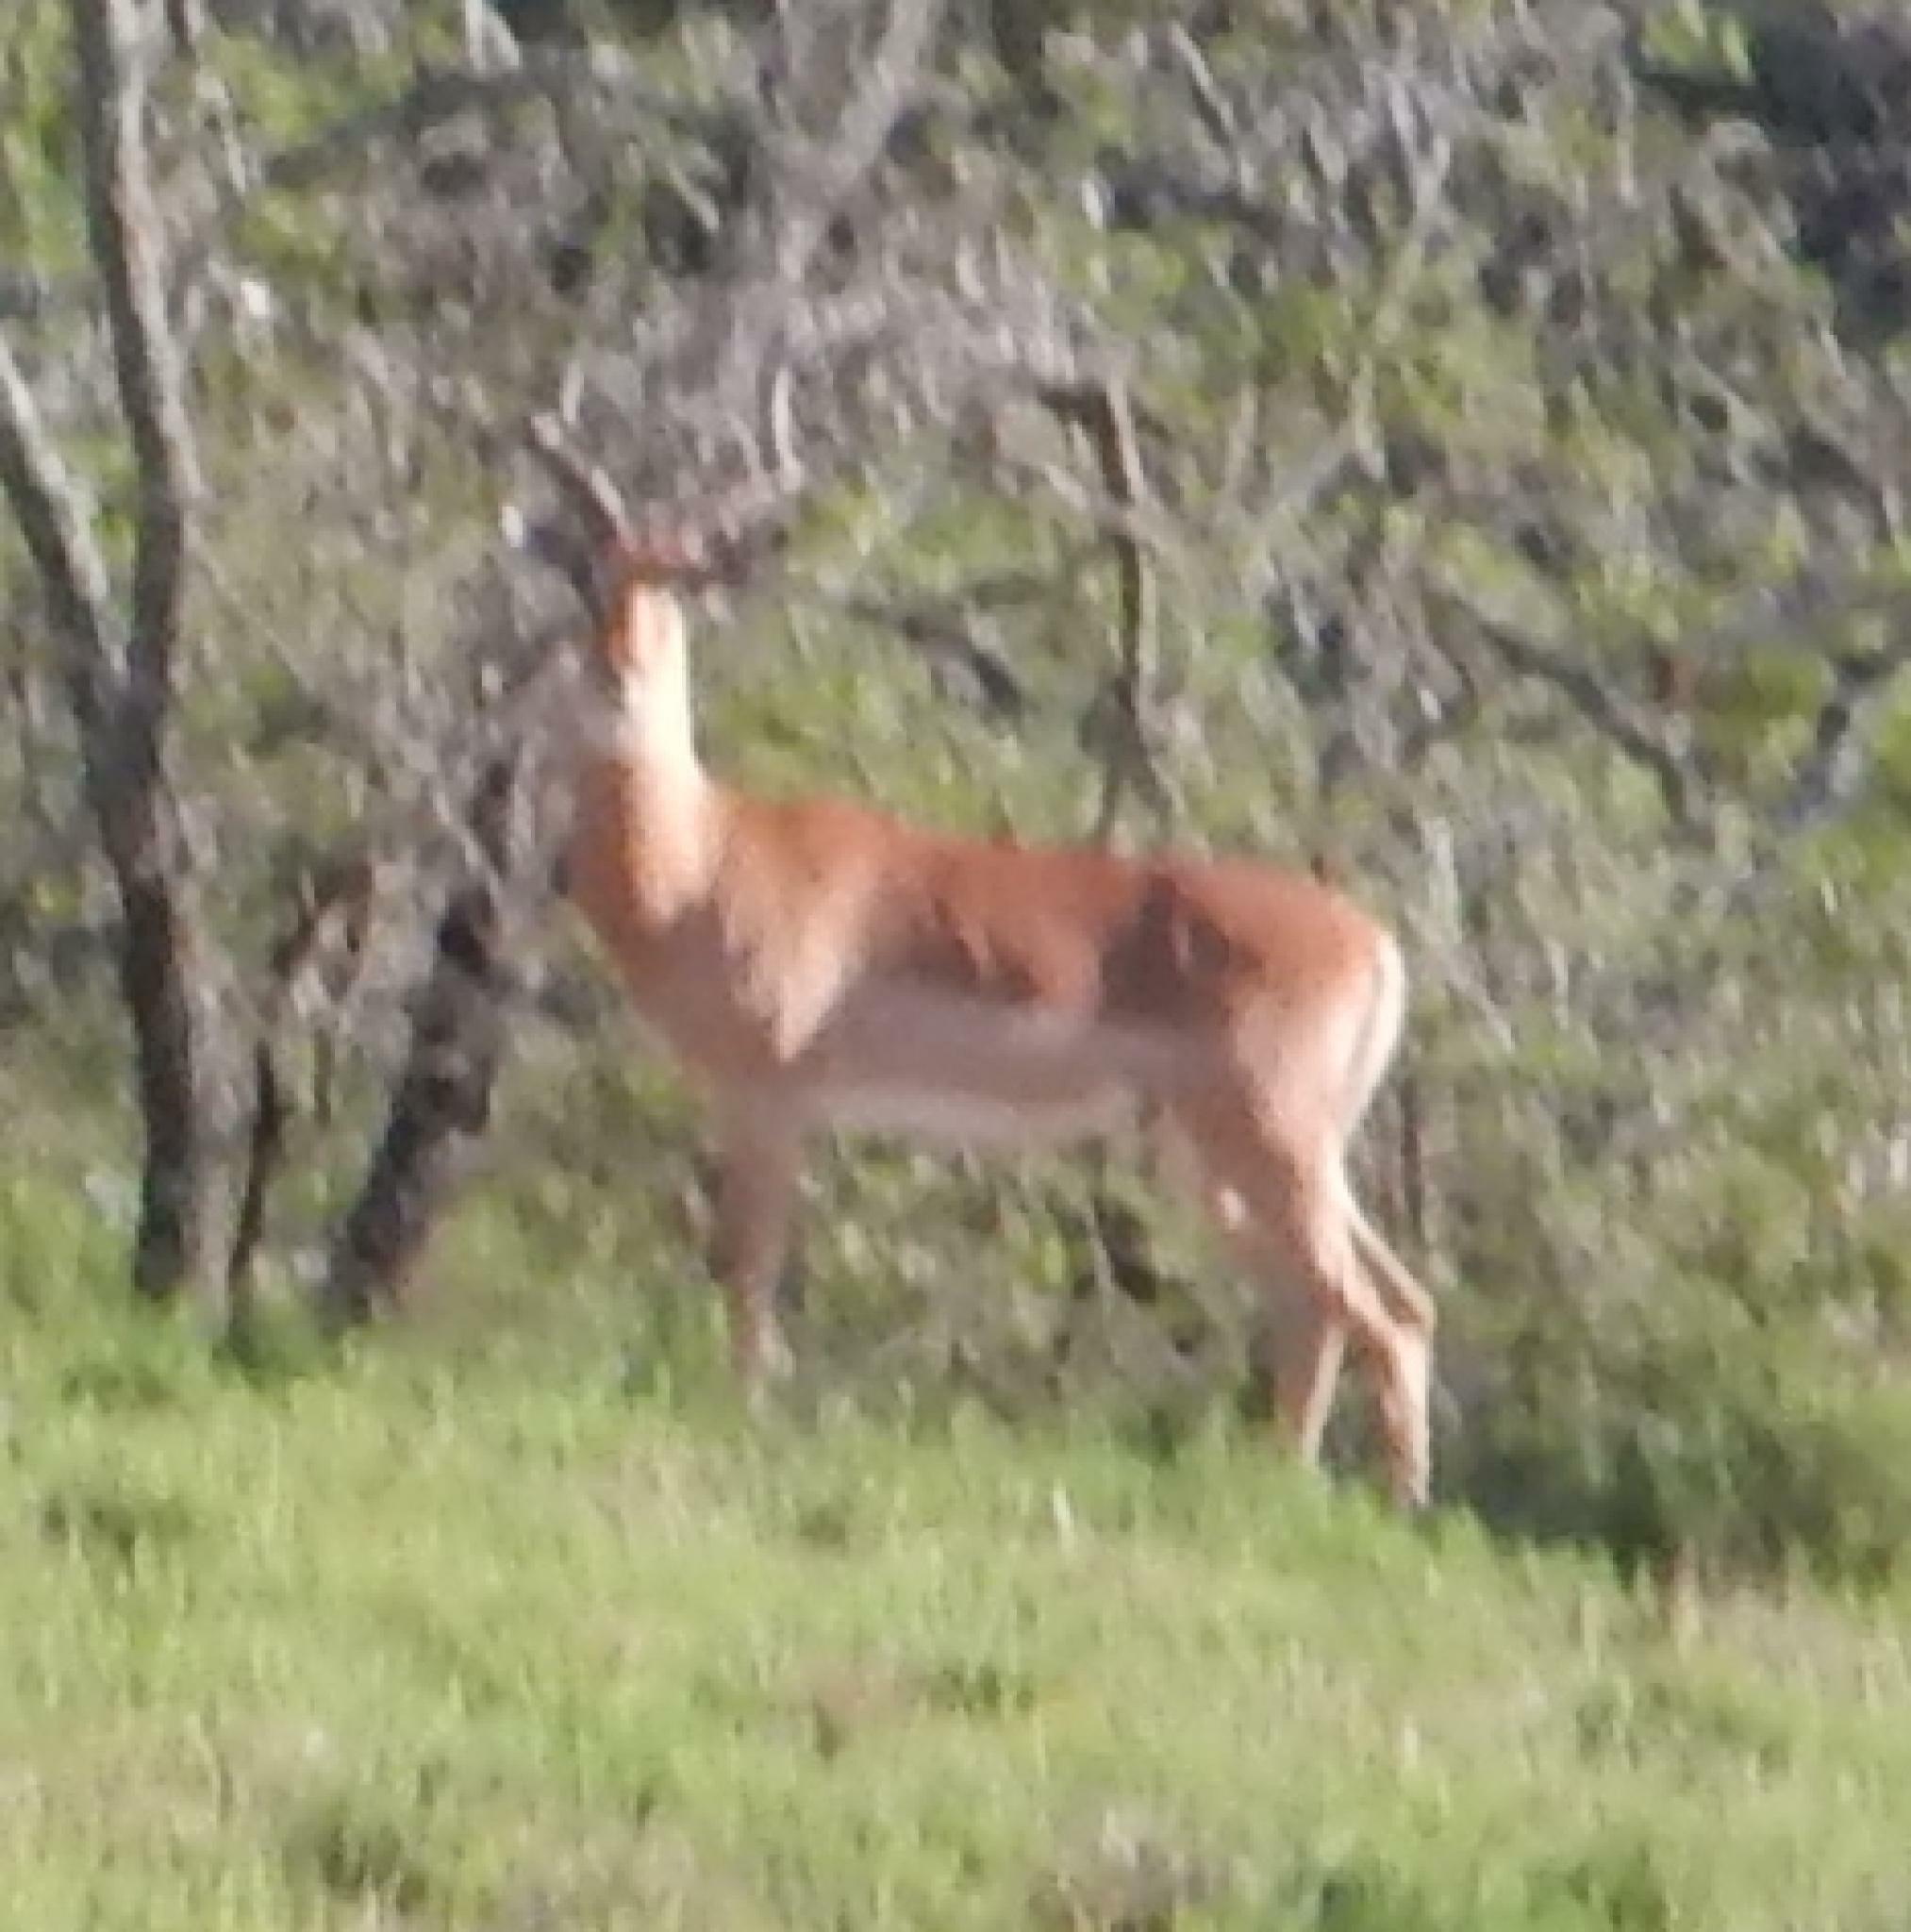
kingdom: Animalia
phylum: Chordata
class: Mammalia
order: Artiodactyla
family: Bovidae
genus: Aepyceros
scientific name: Aepyceros melampus
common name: Impala
